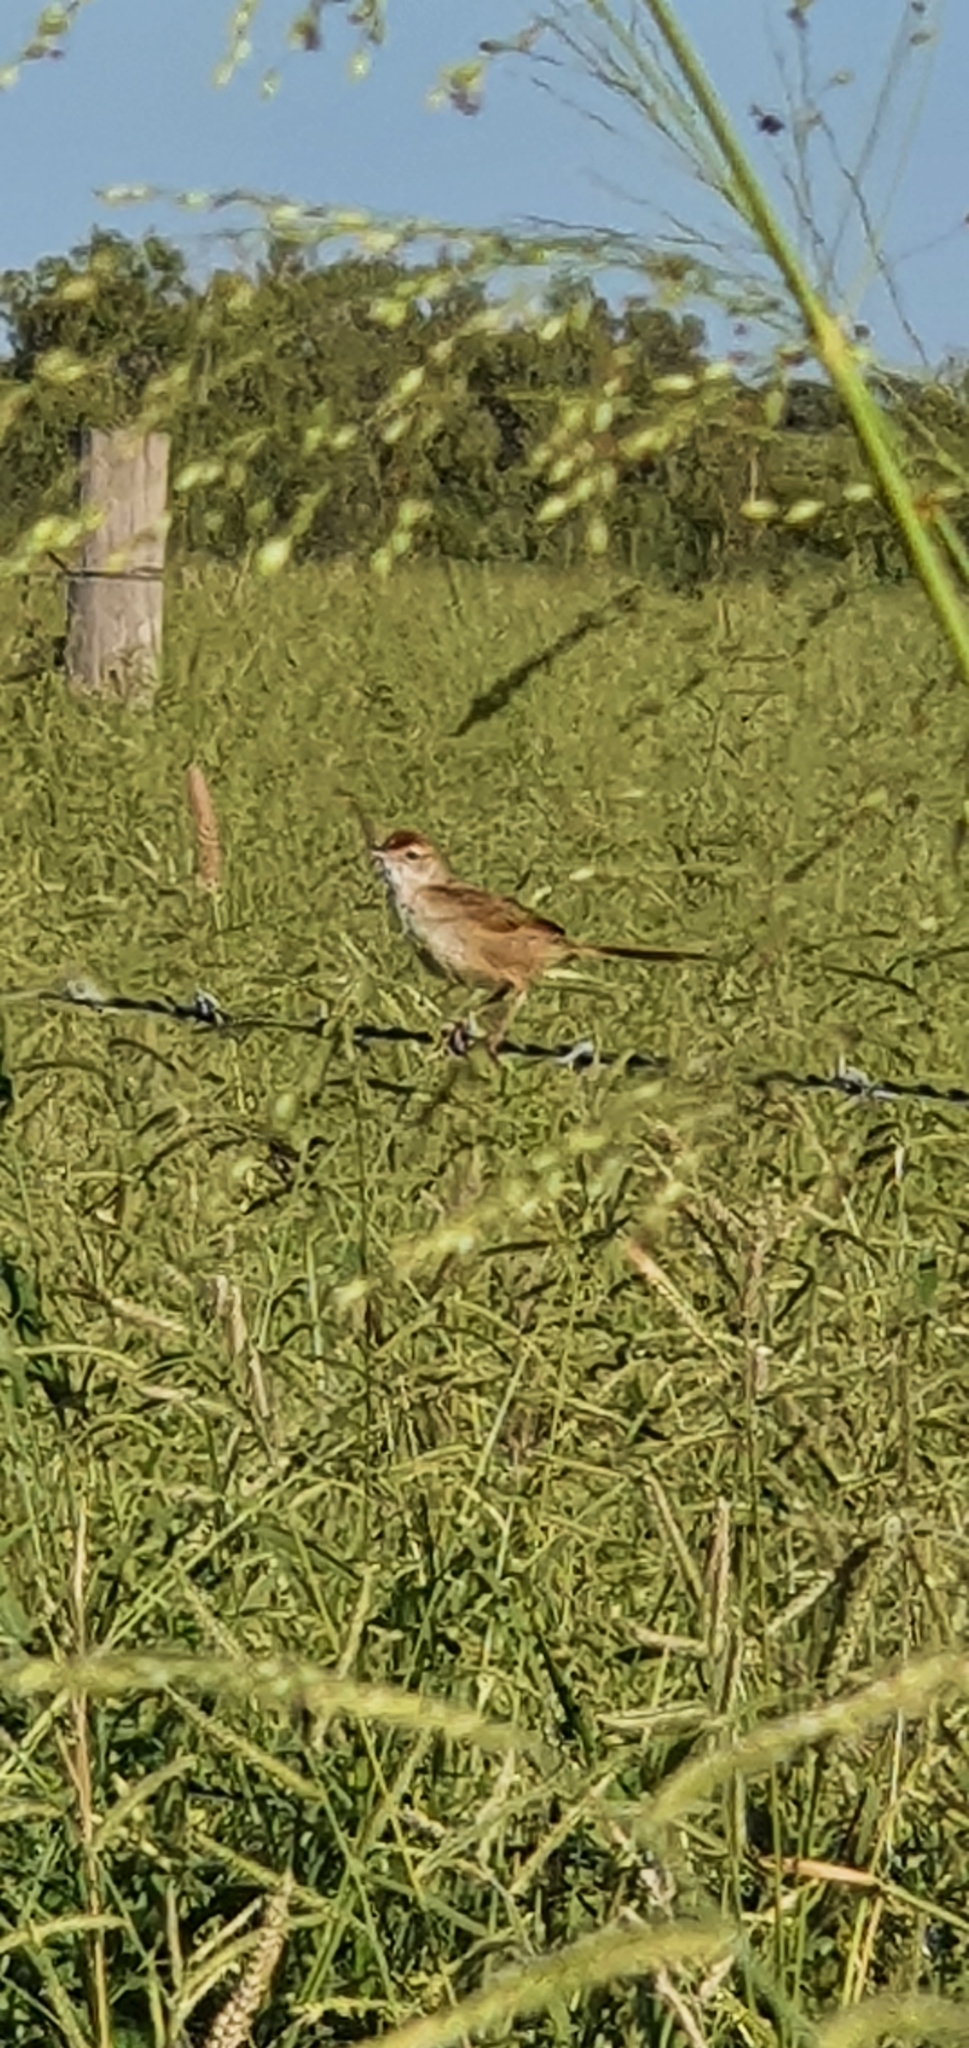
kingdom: Animalia
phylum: Chordata
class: Aves
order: Passeriformes
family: Locustellidae
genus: Megalurus
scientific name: Megalurus timoriensis
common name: Tawny grassbird
